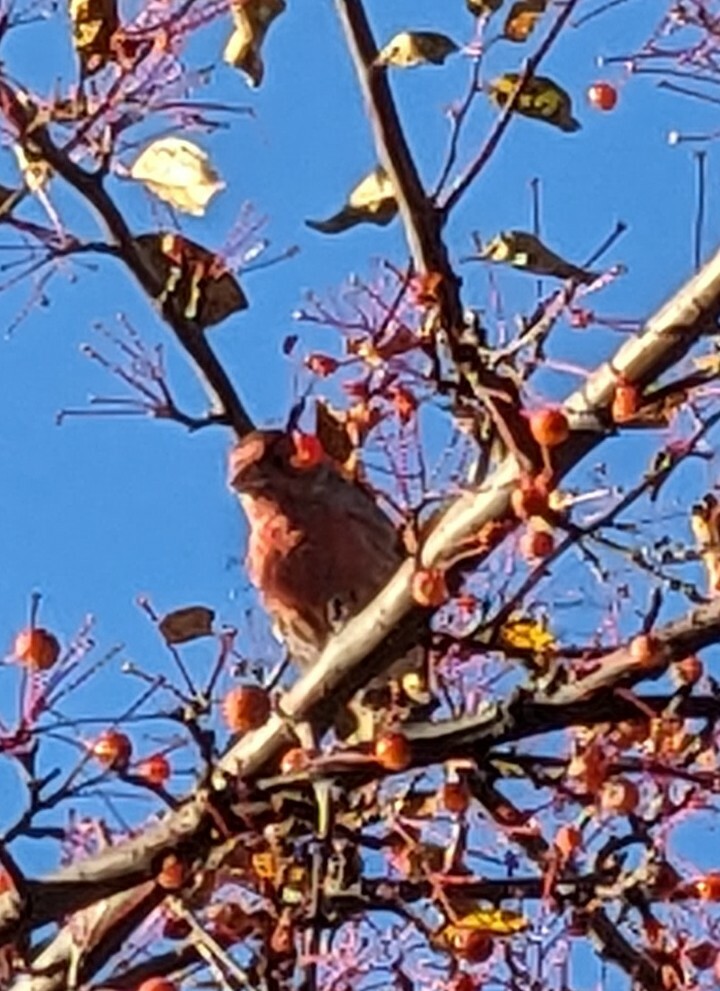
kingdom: Animalia
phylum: Chordata
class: Aves
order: Passeriformes
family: Fringillidae
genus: Haemorhous
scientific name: Haemorhous mexicanus
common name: House finch
